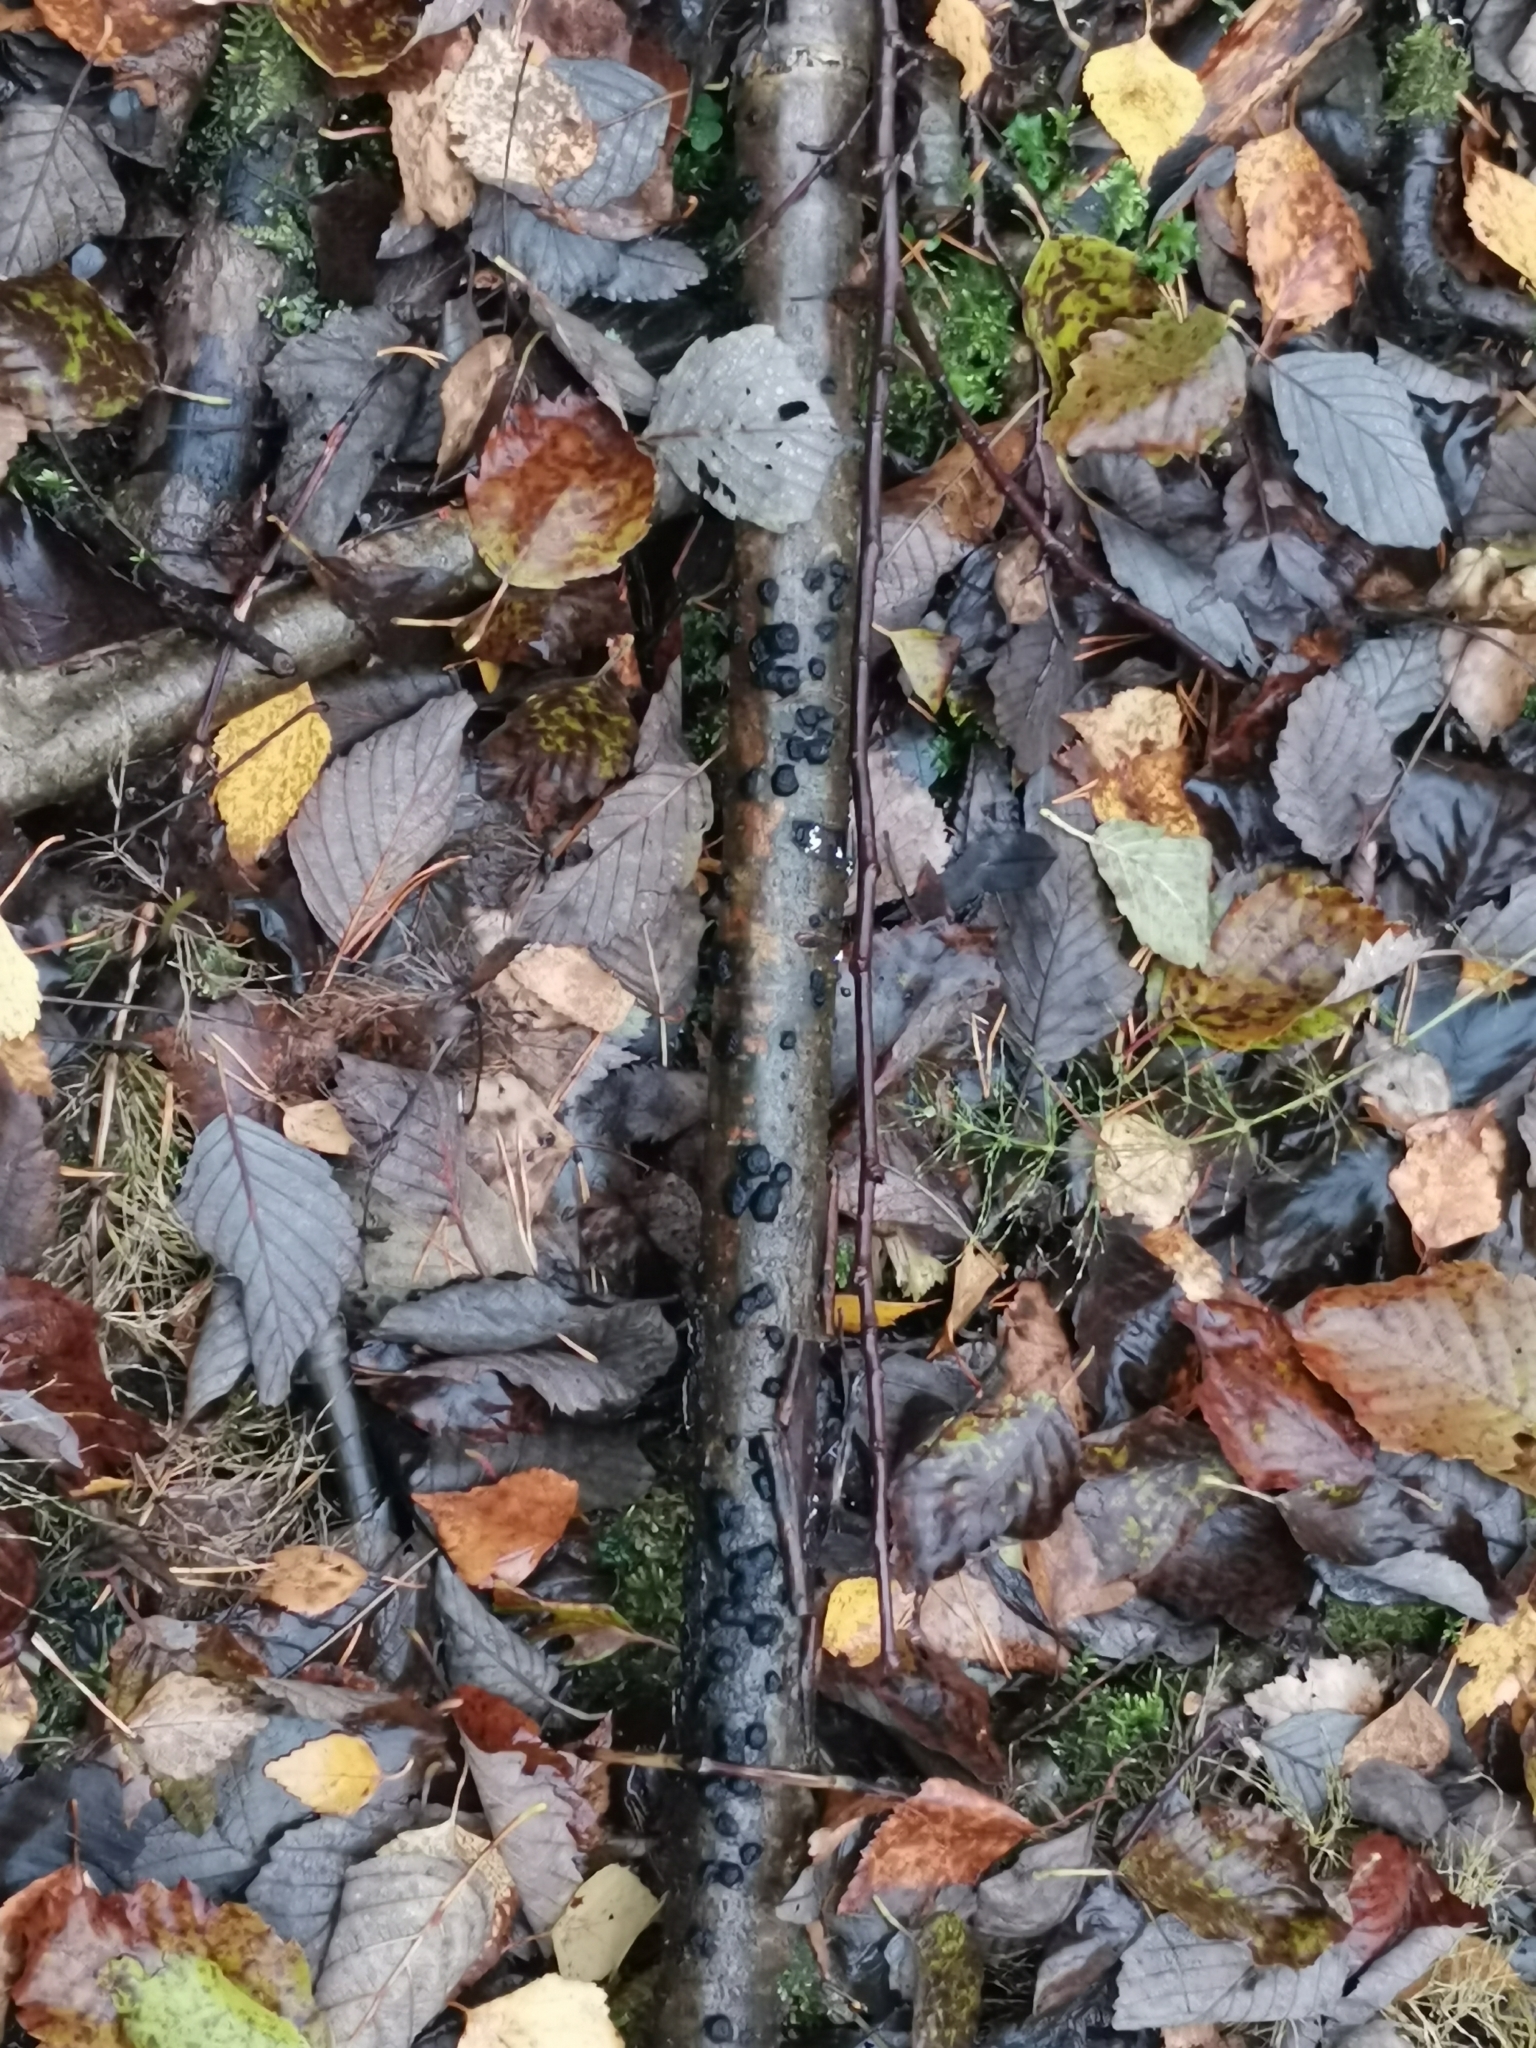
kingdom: Fungi
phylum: Ascomycota
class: Sordariomycetes
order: Xylariales
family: Hypoxylaceae
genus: Jackrogersella
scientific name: Jackrogersella multiformis
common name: Birch woodwart
